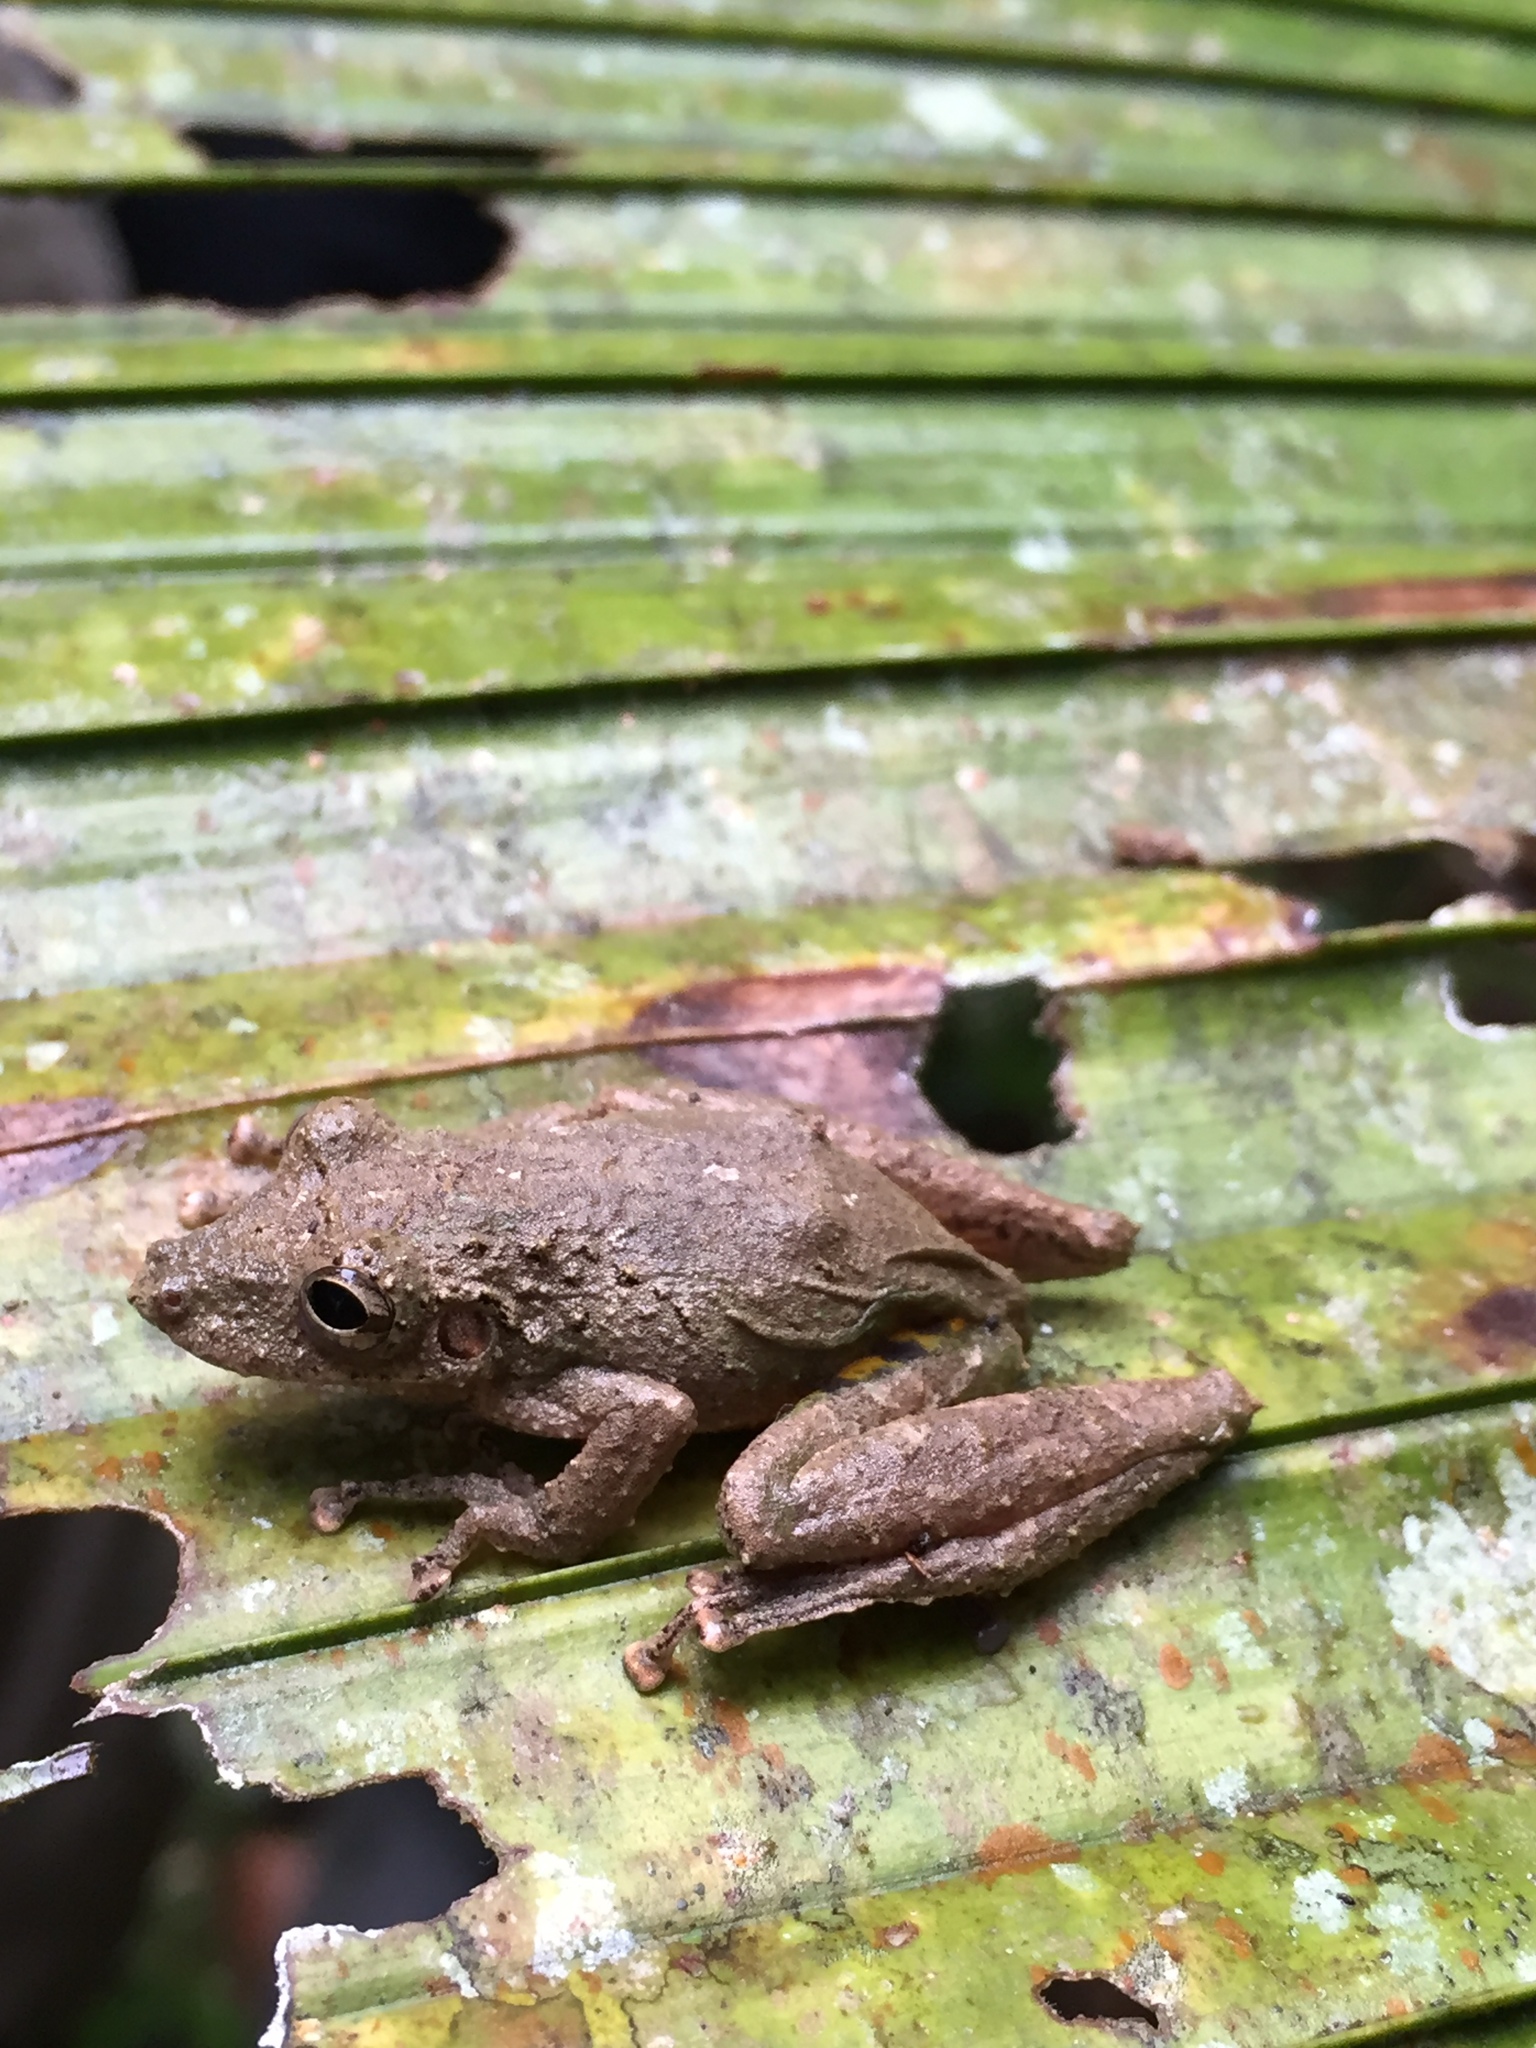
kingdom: Animalia
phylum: Chordata
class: Amphibia
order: Anura
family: Hylidae
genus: Scinax
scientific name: Scinax garbei
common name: Eirunepe snouted treefrog
